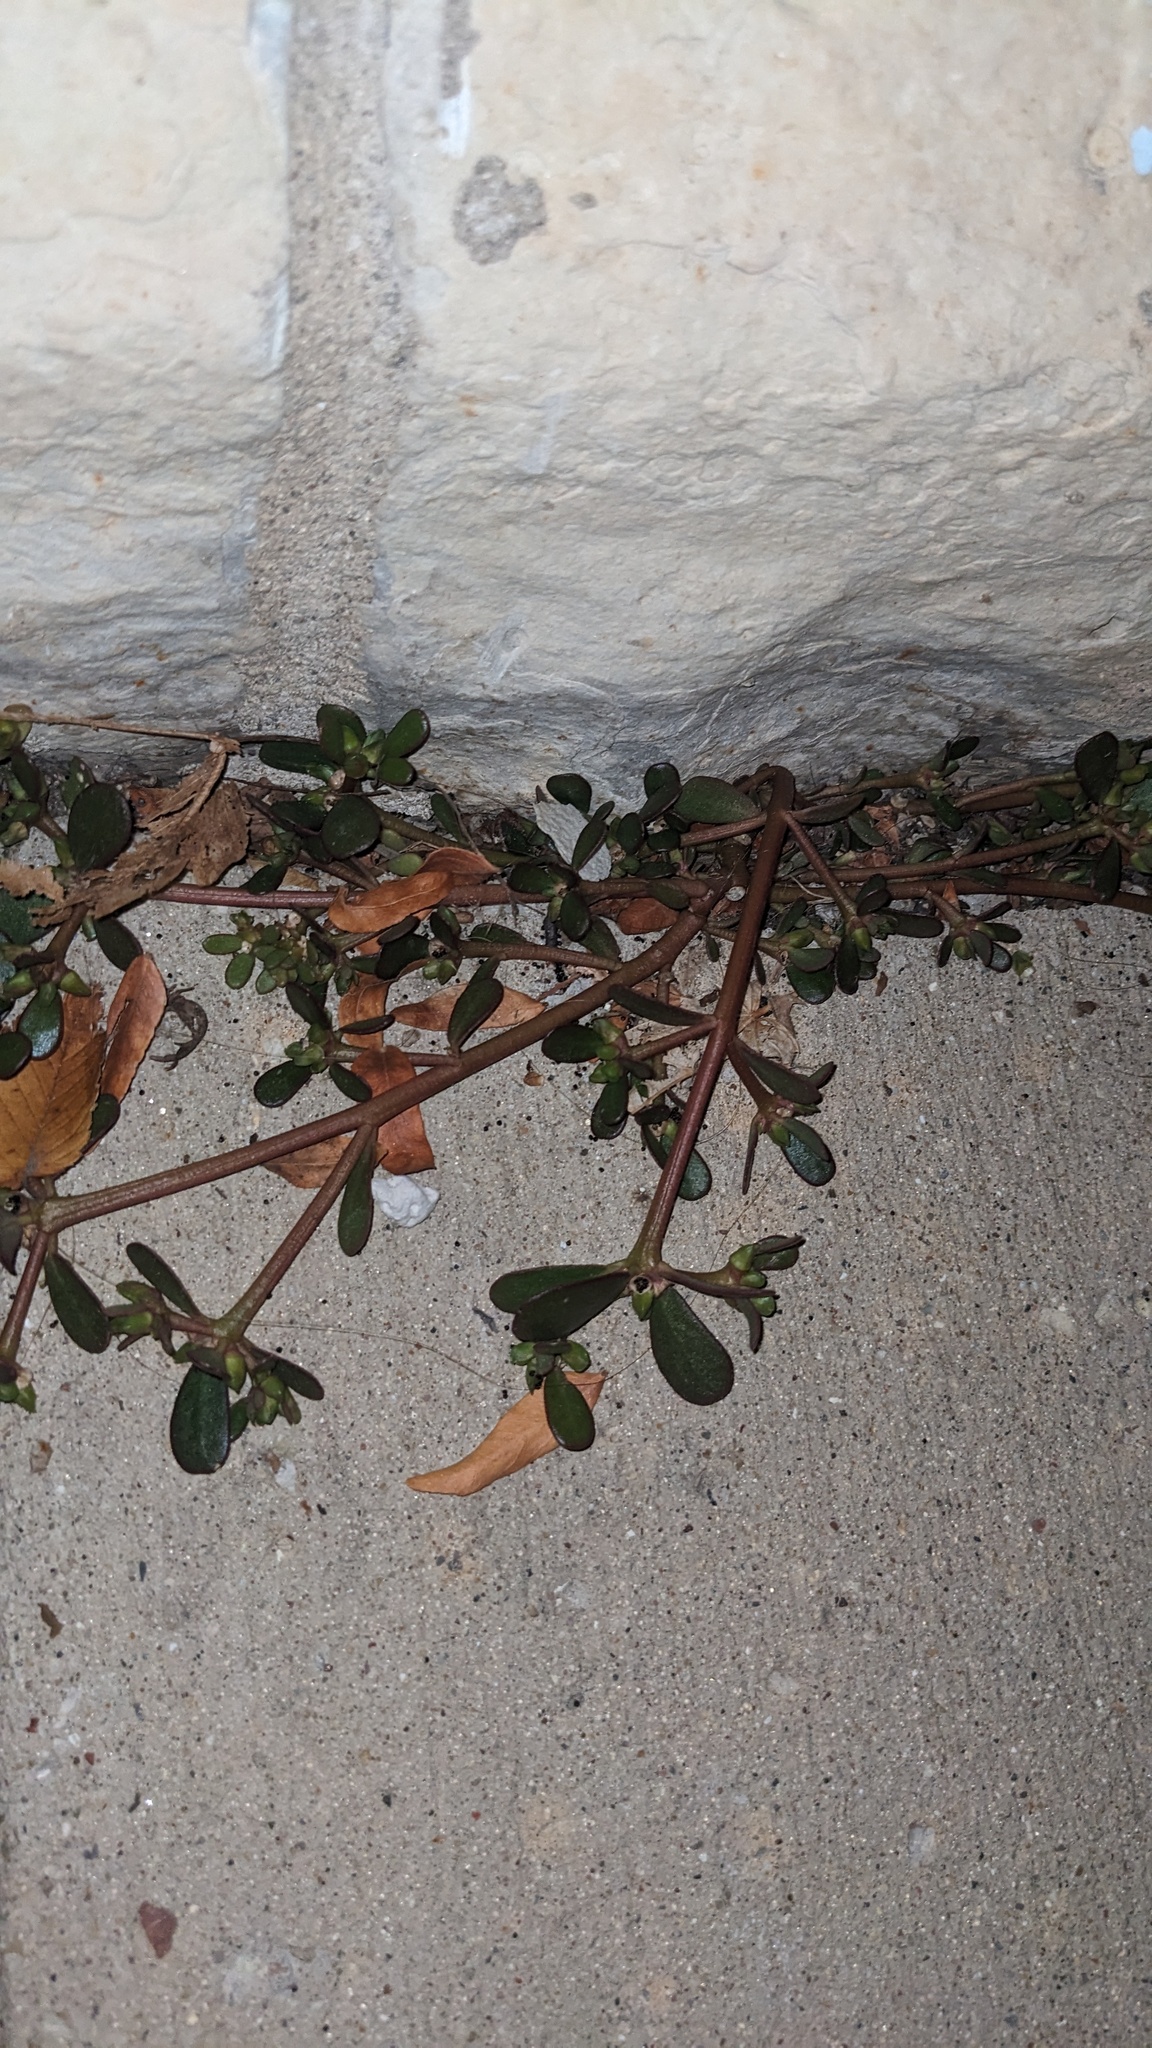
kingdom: Plantae
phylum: Tracheophyta
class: Magnoliopsida
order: Caryophyllales
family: Portulacaceae
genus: Portulaca
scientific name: Portulaca oleracea
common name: Common purslane
